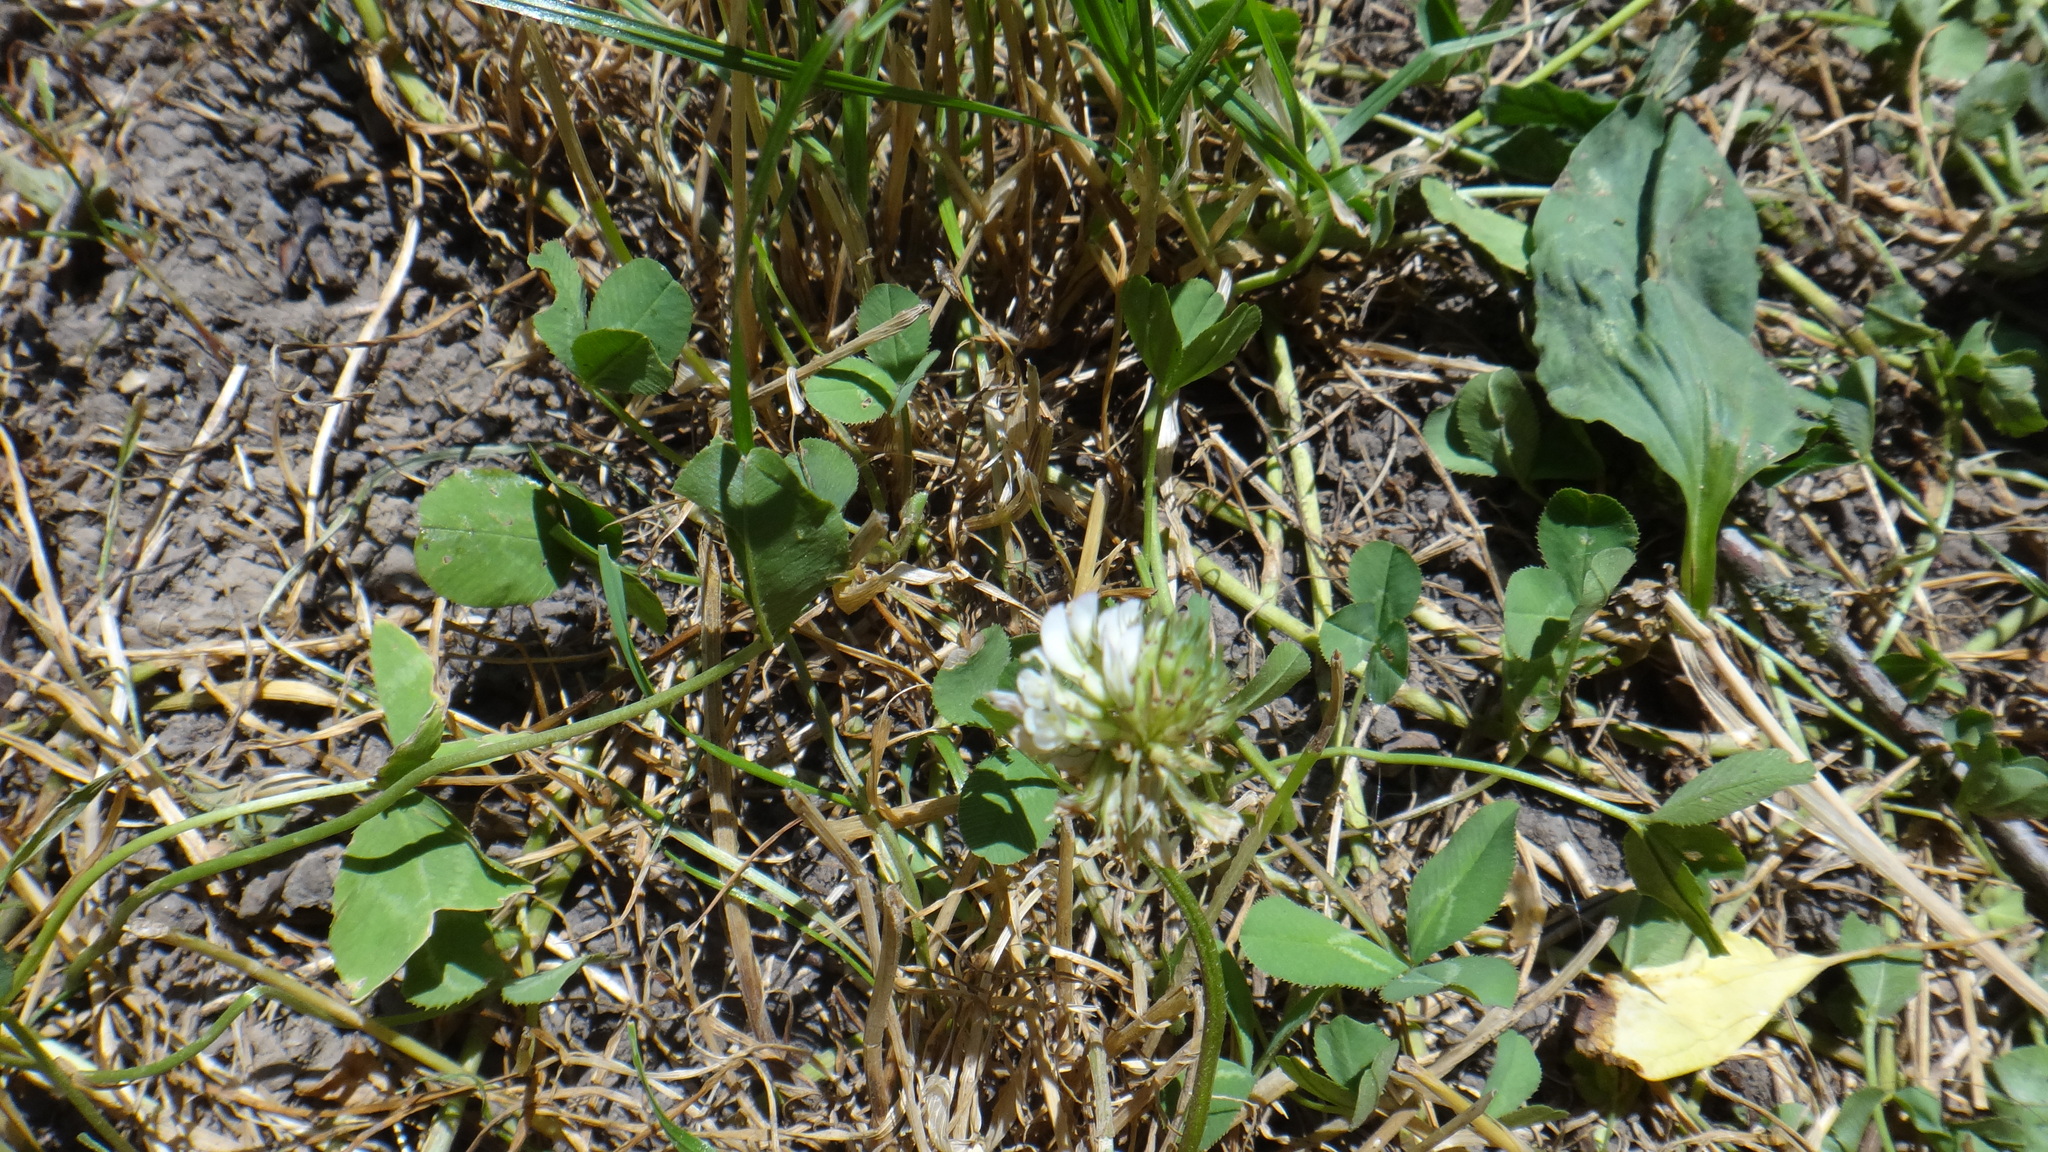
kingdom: Plantae
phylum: Tracheophyta
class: Magnoliopsida
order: Fabales
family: Fabaceae
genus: Trifolium
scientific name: Trifolium repens
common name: White clover
